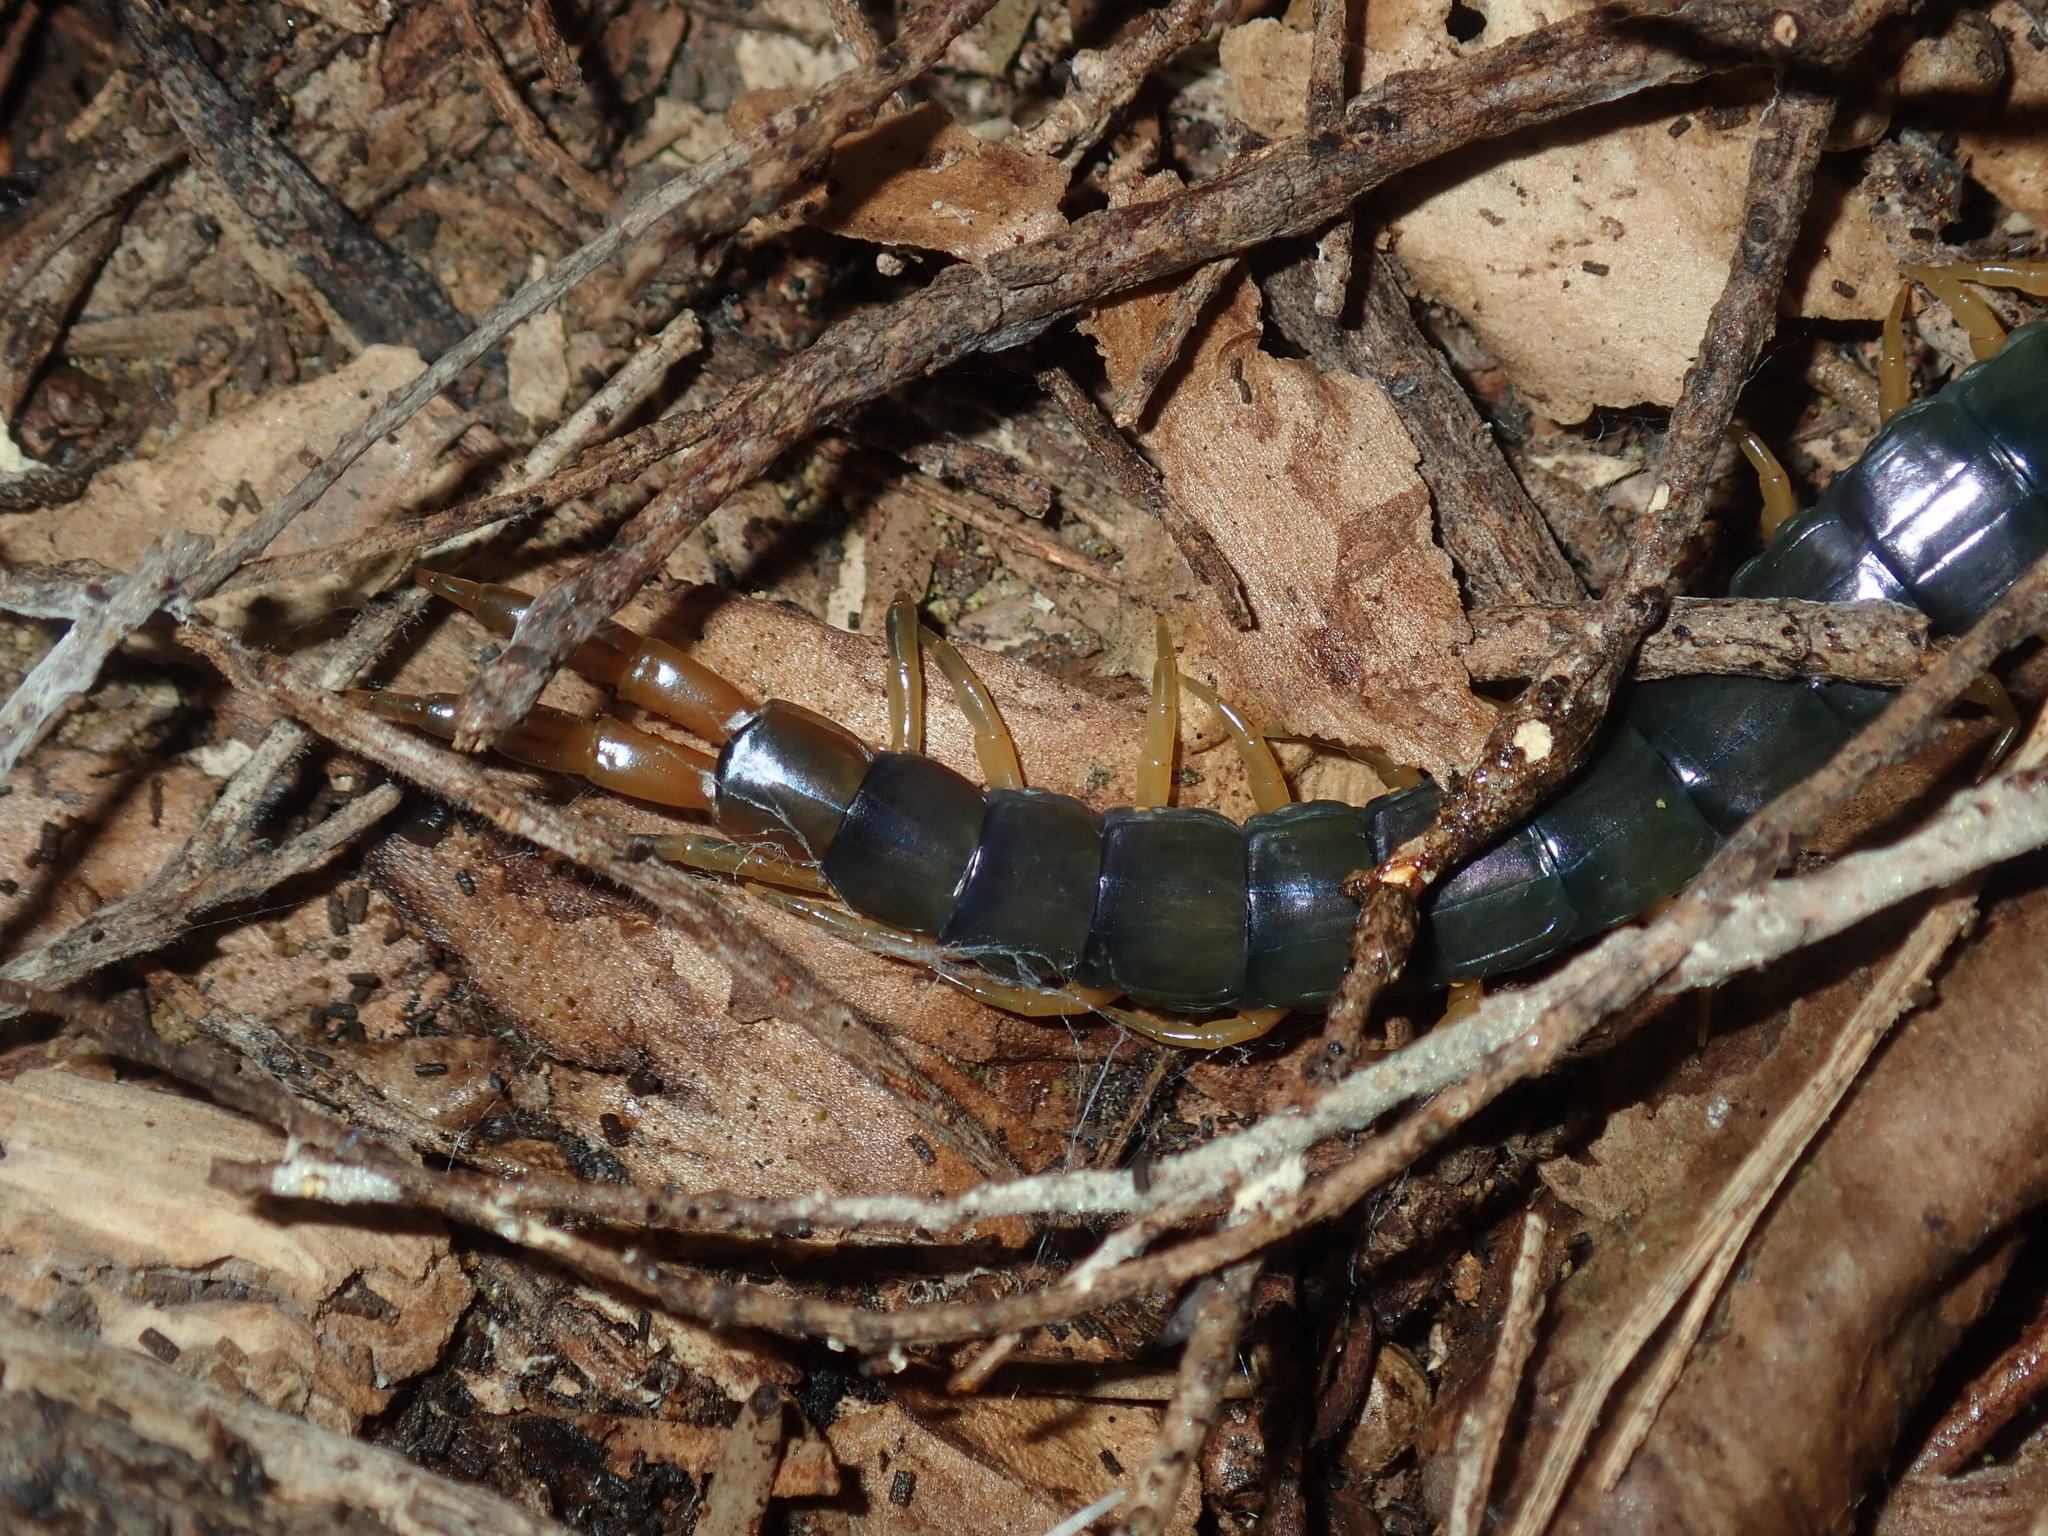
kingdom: Animalia
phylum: Arthropoda
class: Chilopoda
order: Scolopendromorpha
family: Scolopendridae
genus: Cormocephalus
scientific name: Cormocephalus westwoodi
